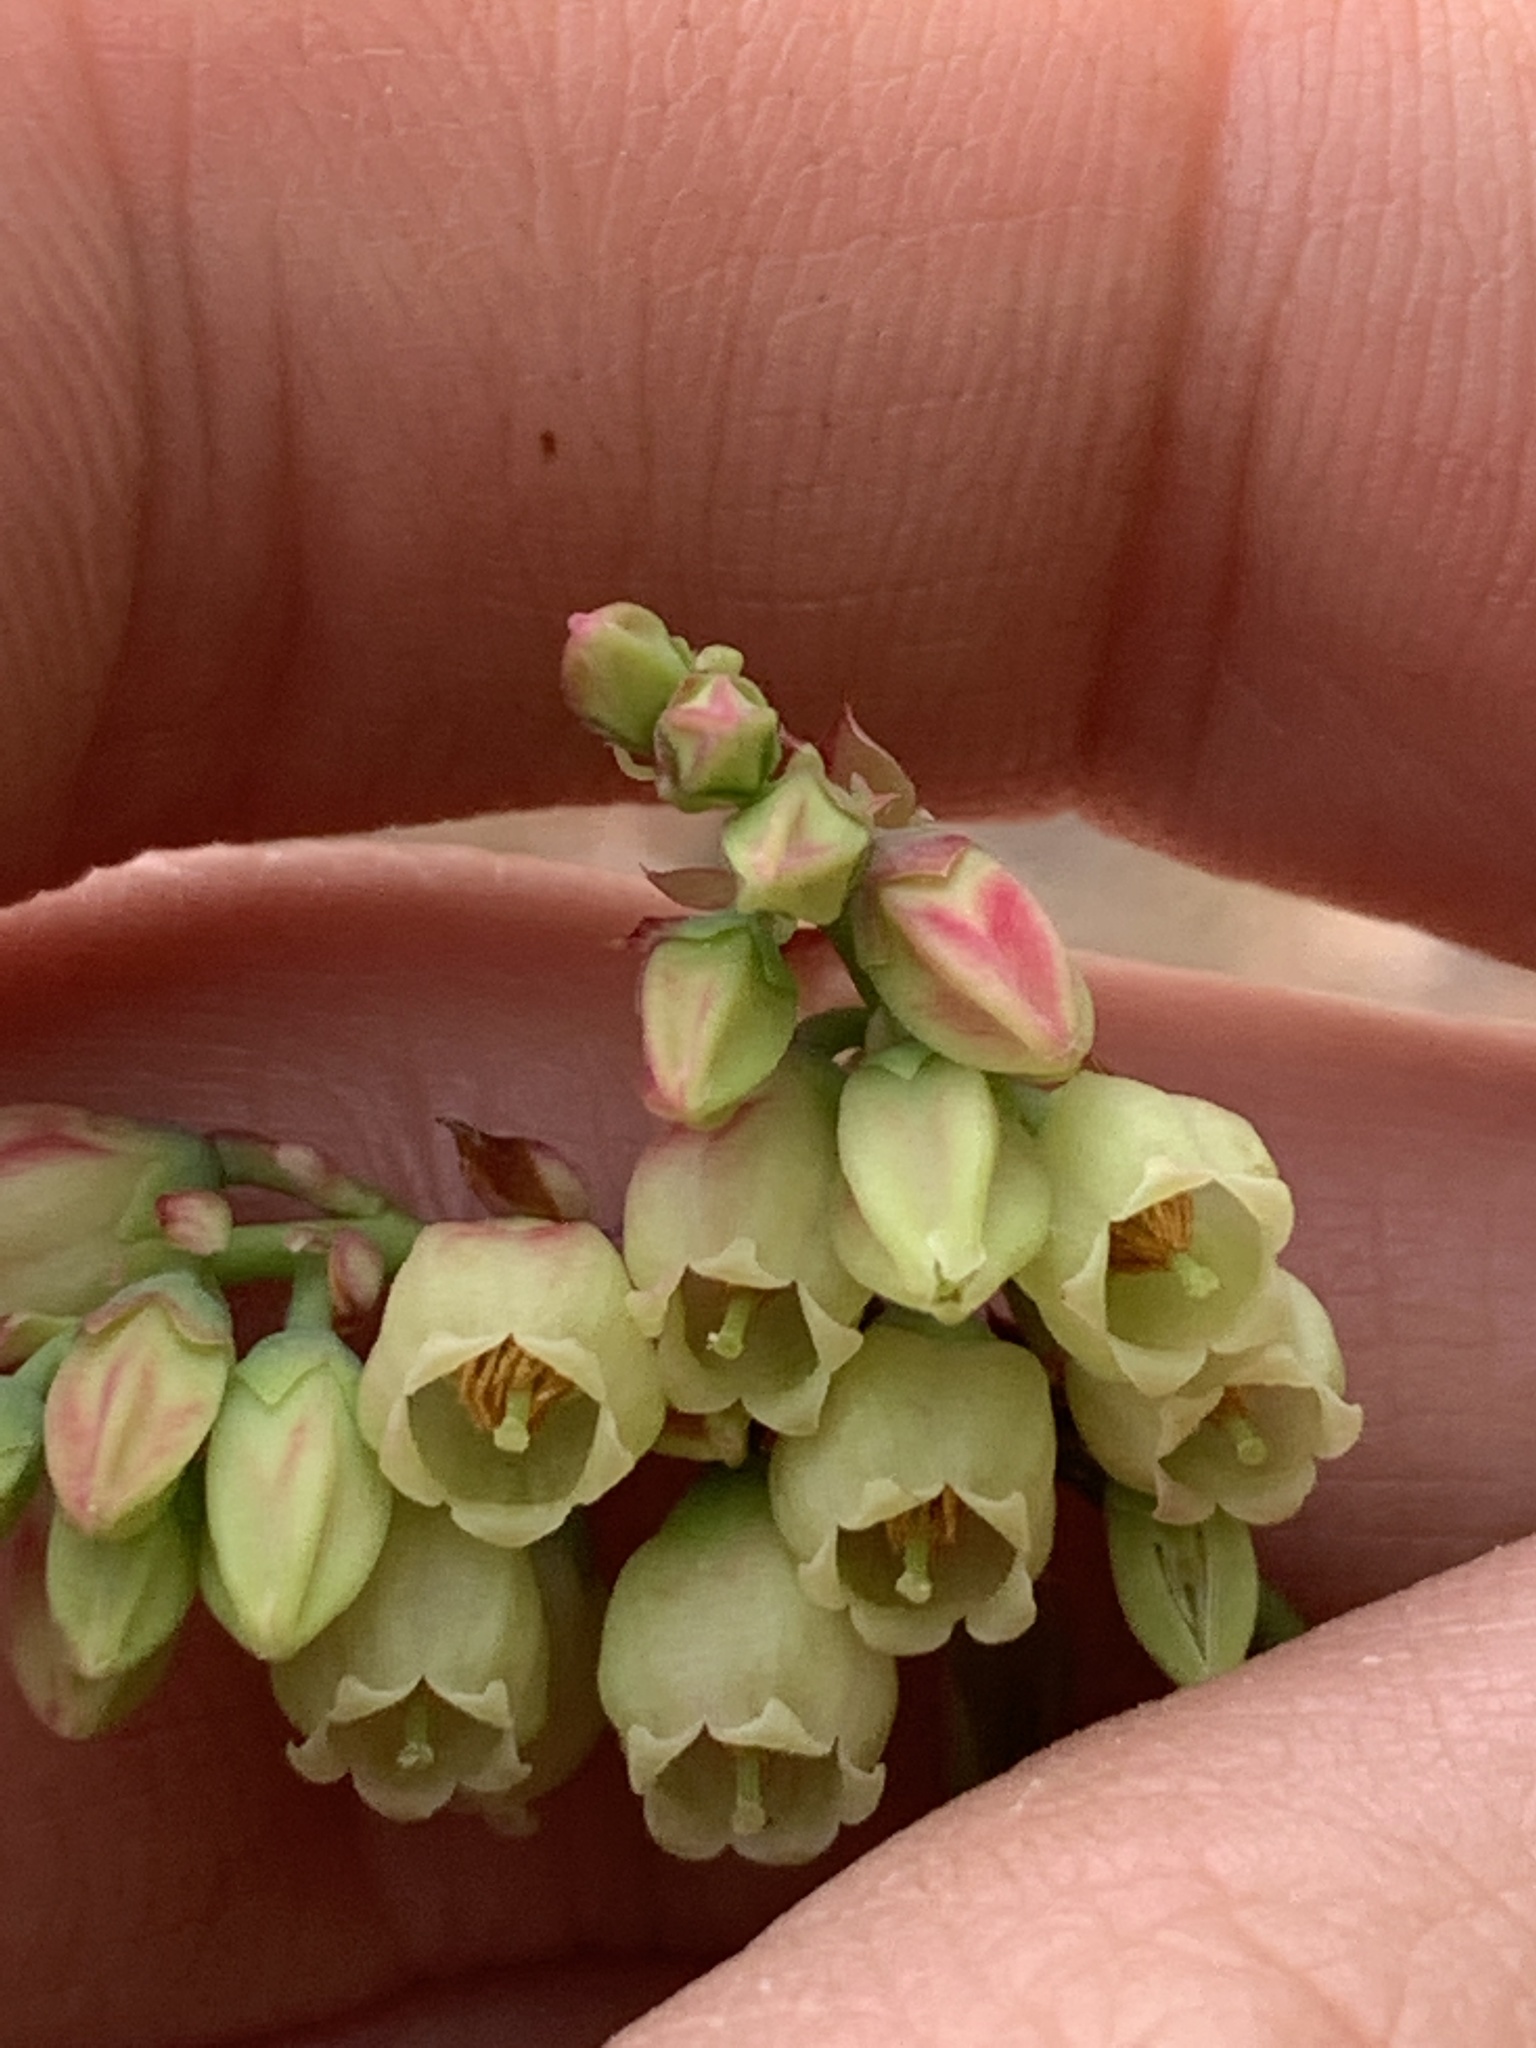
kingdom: Plantae
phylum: Tracheophyta
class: Magnoliopsida
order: Ericales
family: Ericaceae
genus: Vaccinium
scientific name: Vaccinium pallidum
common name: Blue ridge blueberry
